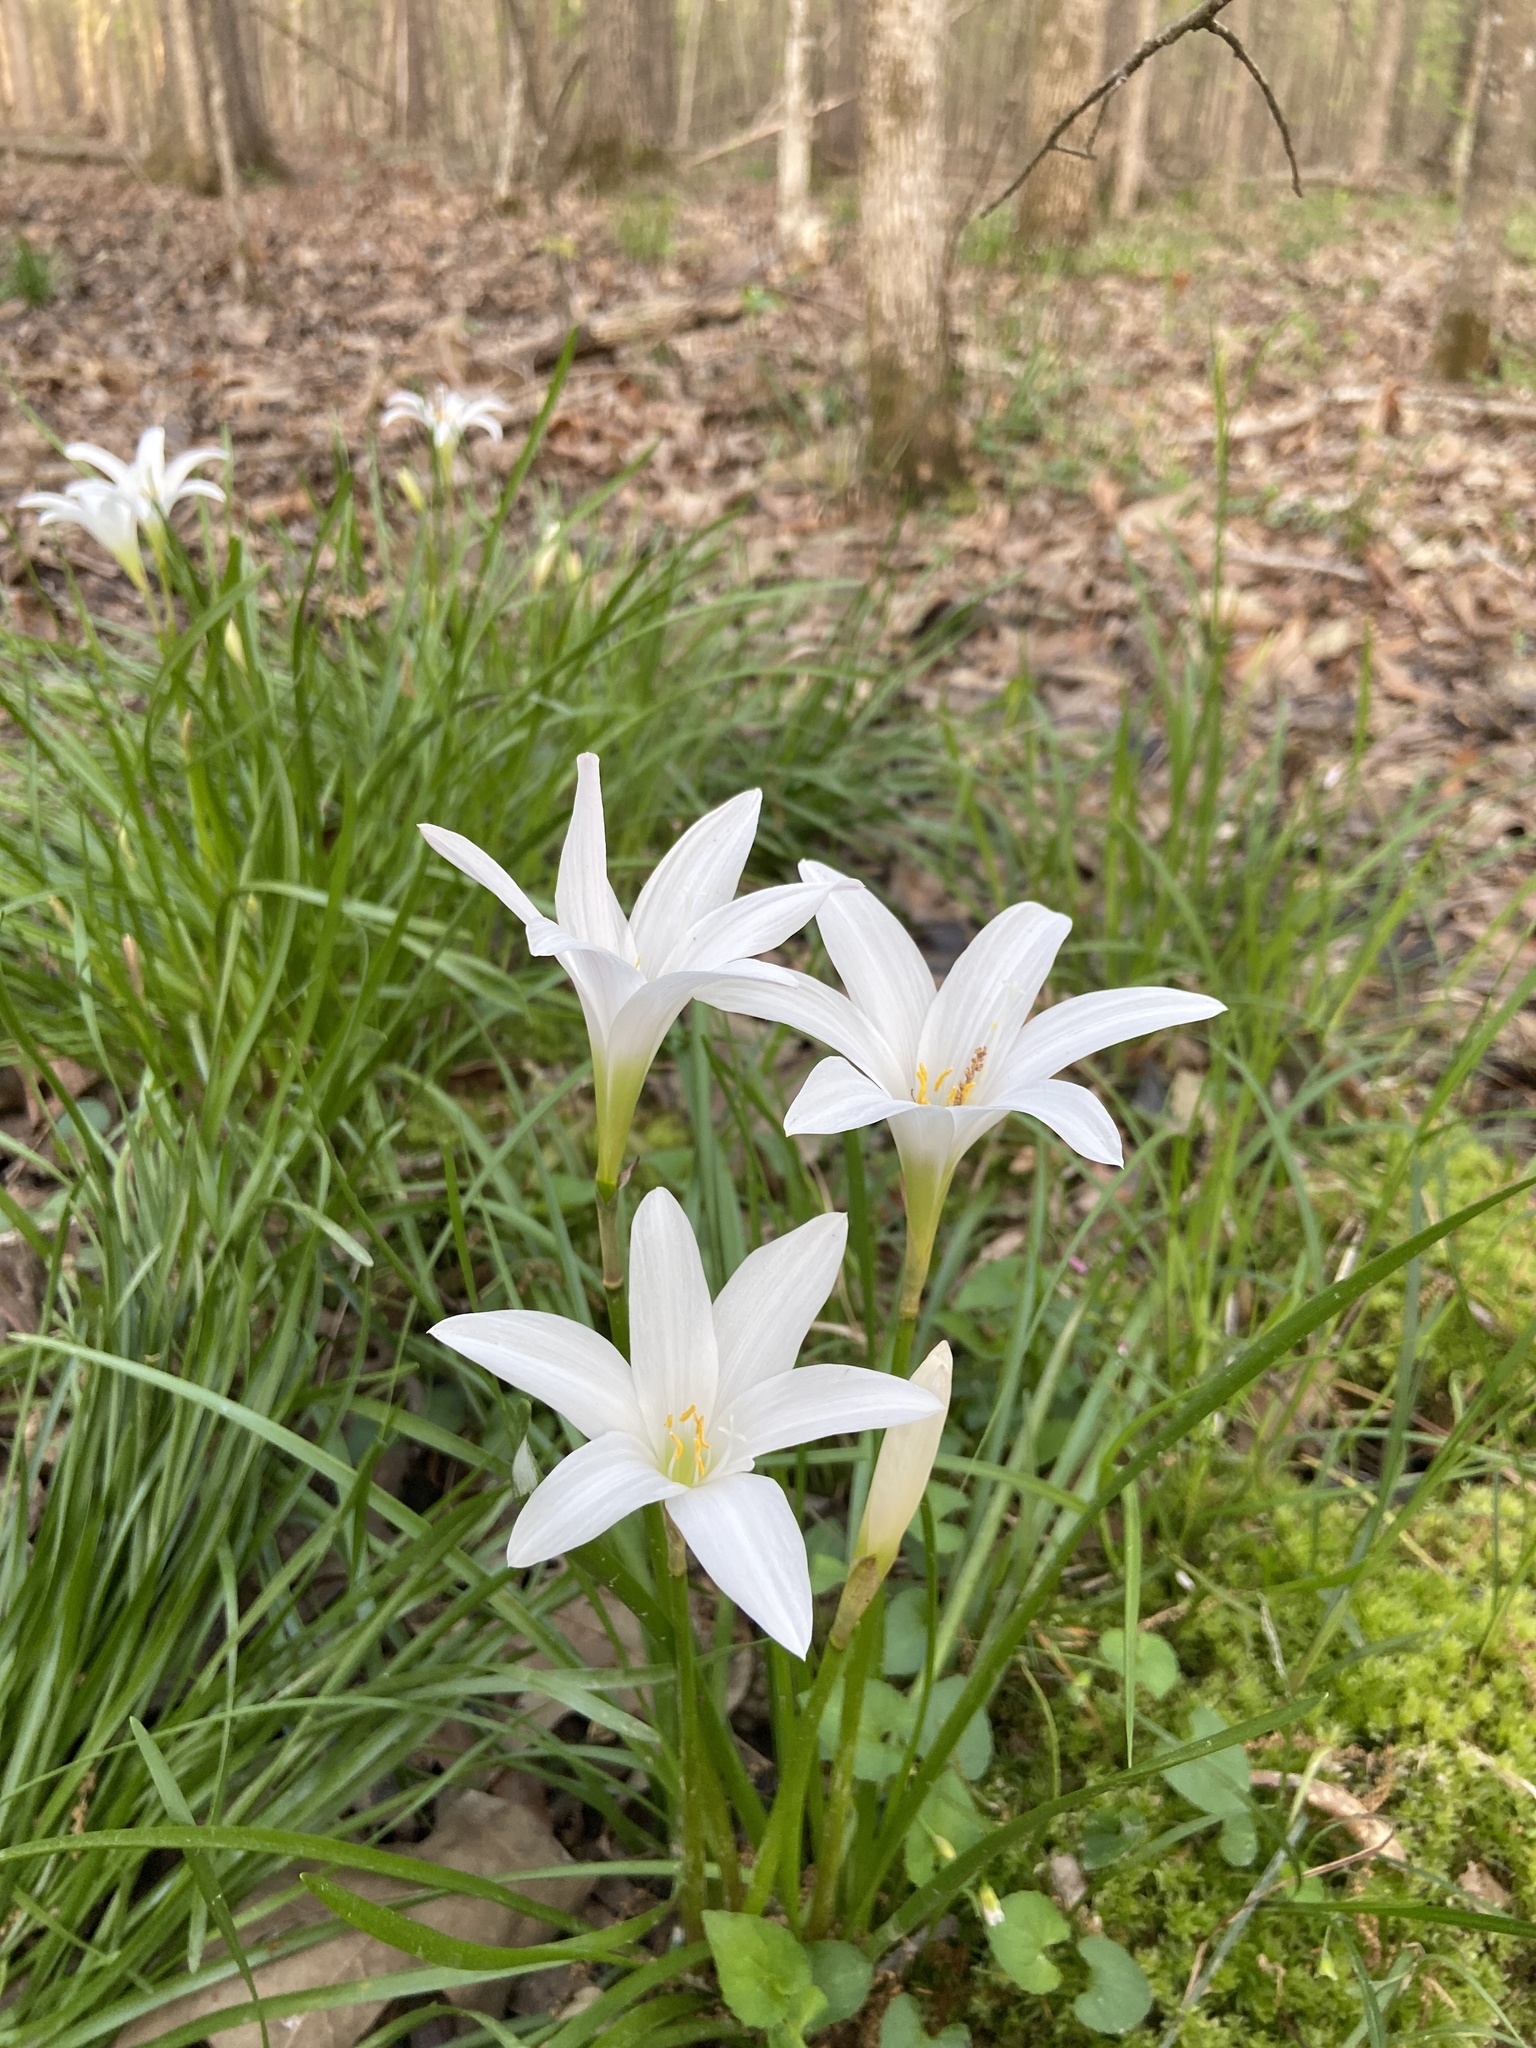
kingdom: Plantae
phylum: Tracheophyta
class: Liliopsida
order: Asparagales
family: Amaryllidaceae
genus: Zephyranthes
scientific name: Zephyranthes atamasco
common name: Atamasco lily
